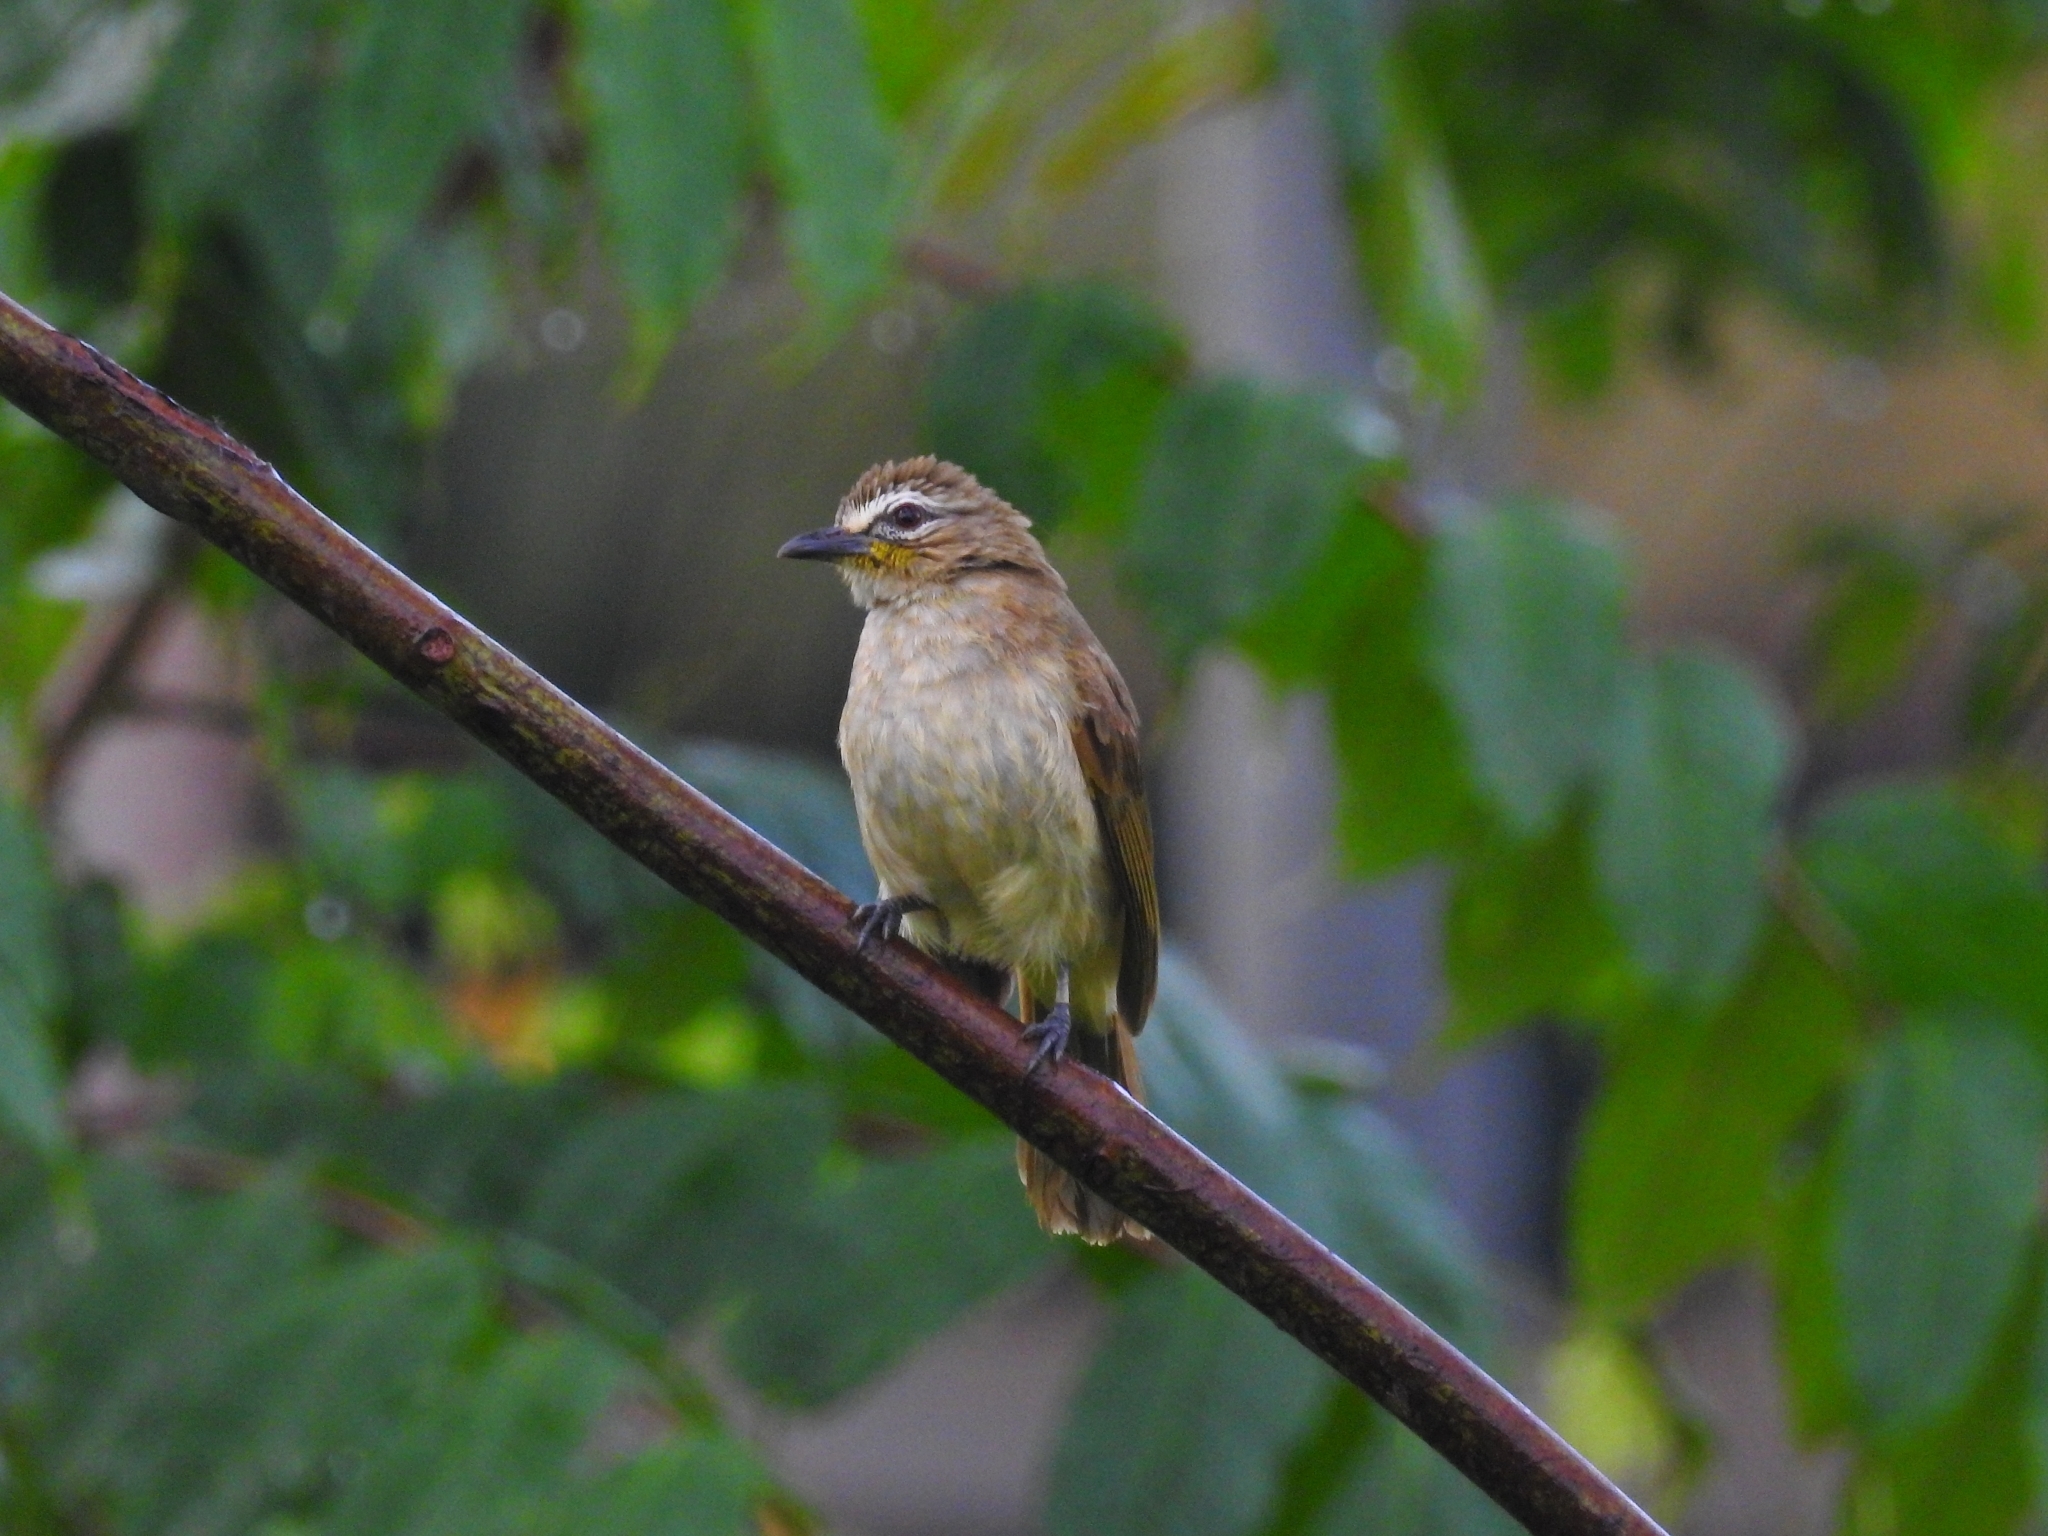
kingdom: Animalia
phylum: Chordata
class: Aves
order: Passeriformes
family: Pycnonotidae
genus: Pycnonotus
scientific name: Pycnonotus luteolus
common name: White-browed bulbul
